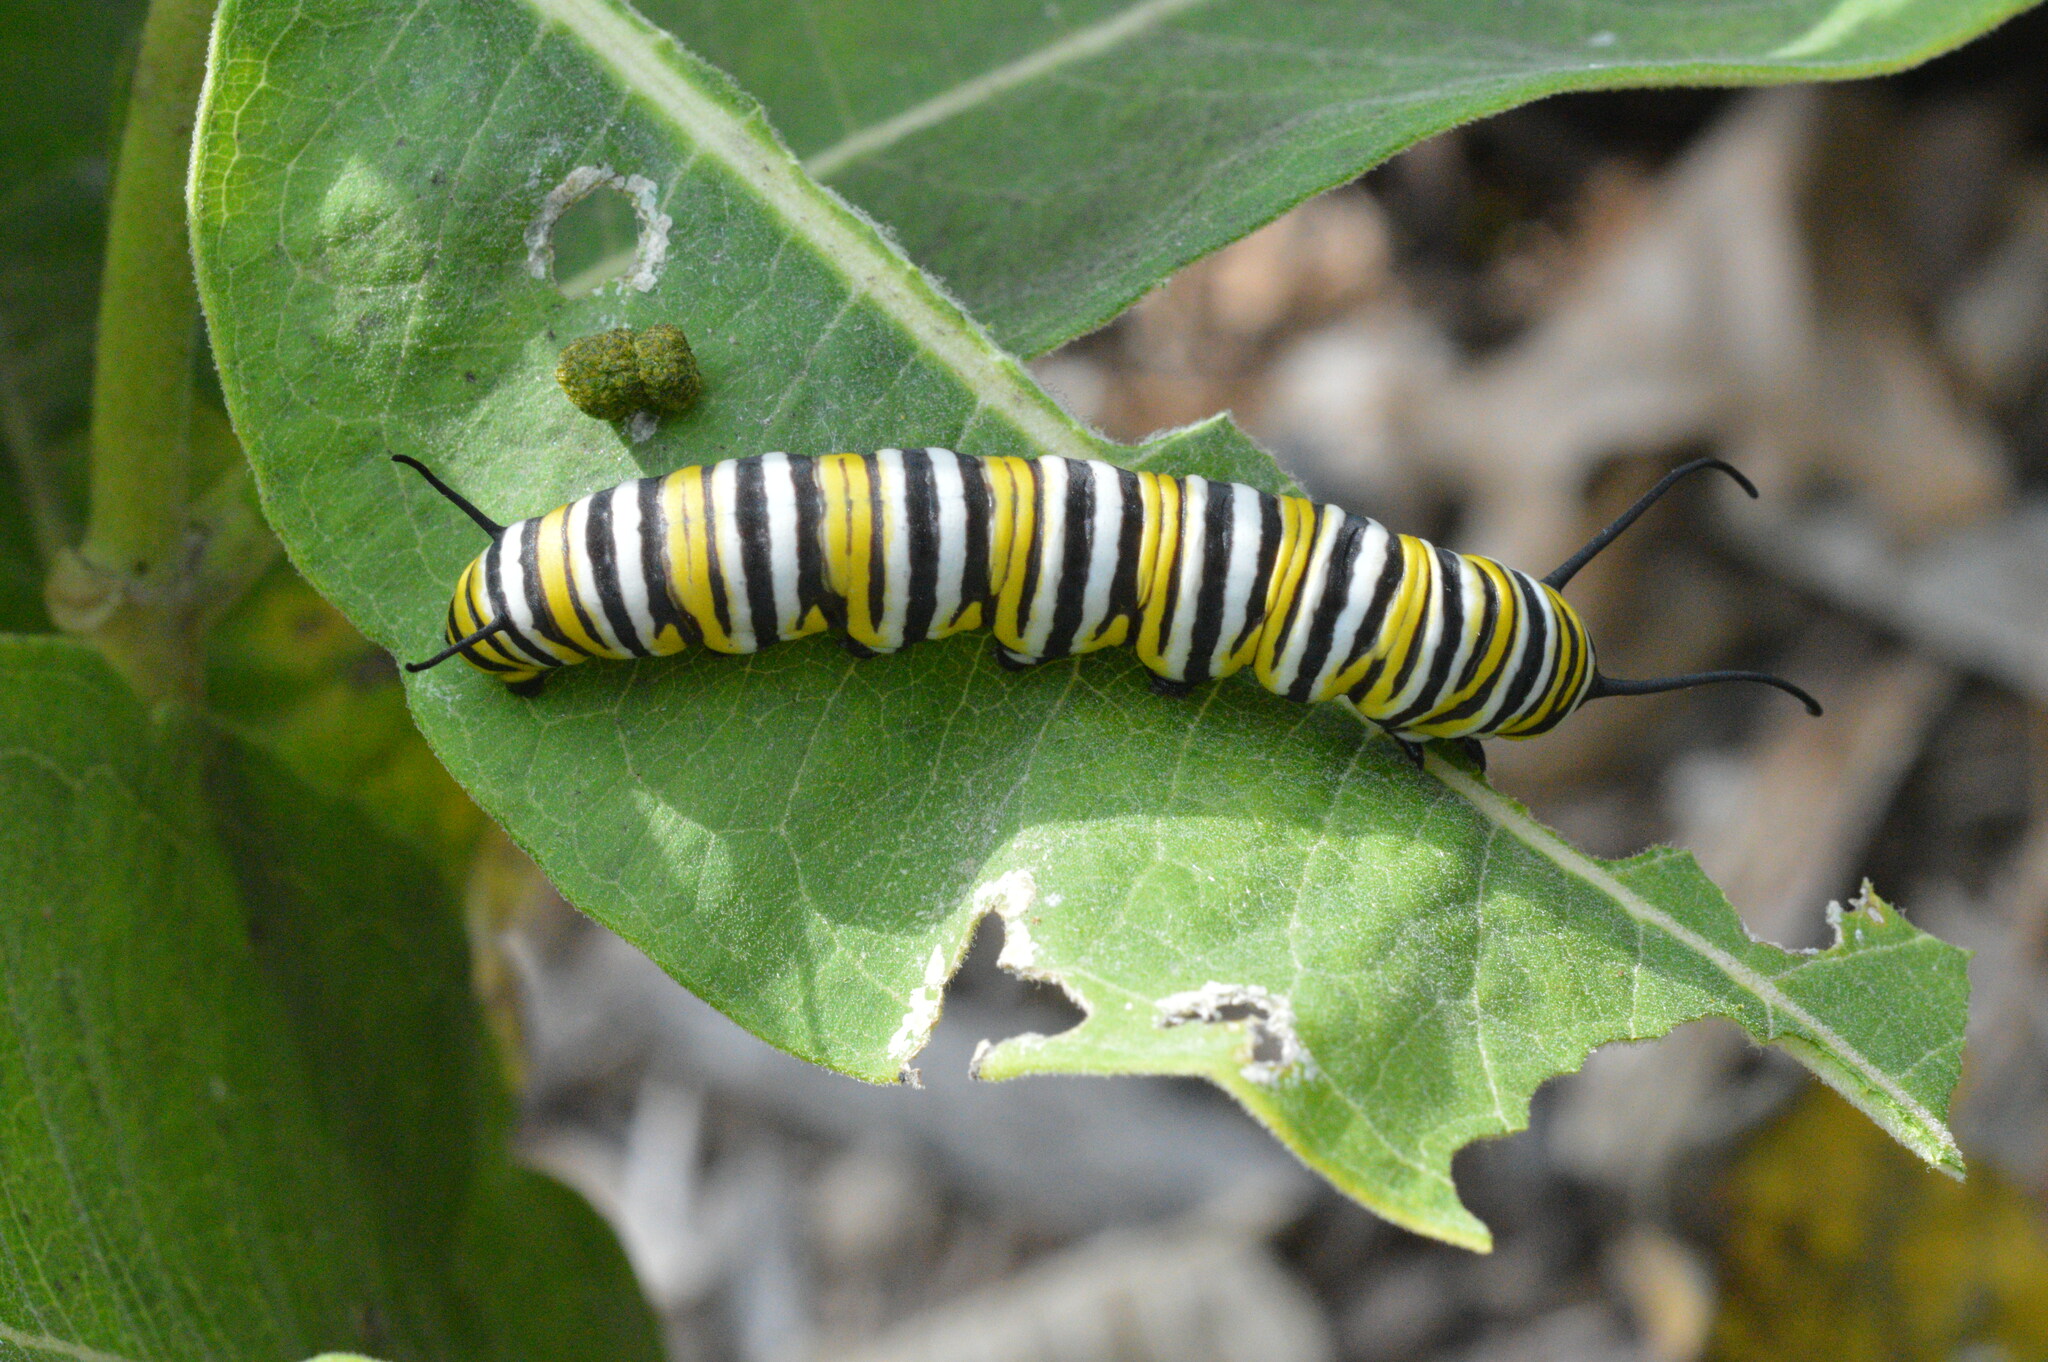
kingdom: Animalia
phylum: Arthropoda
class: Insecta
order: Lepidoptera
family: Nymphalidae
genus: Danaus
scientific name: Danaus plexippus
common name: Monarch
